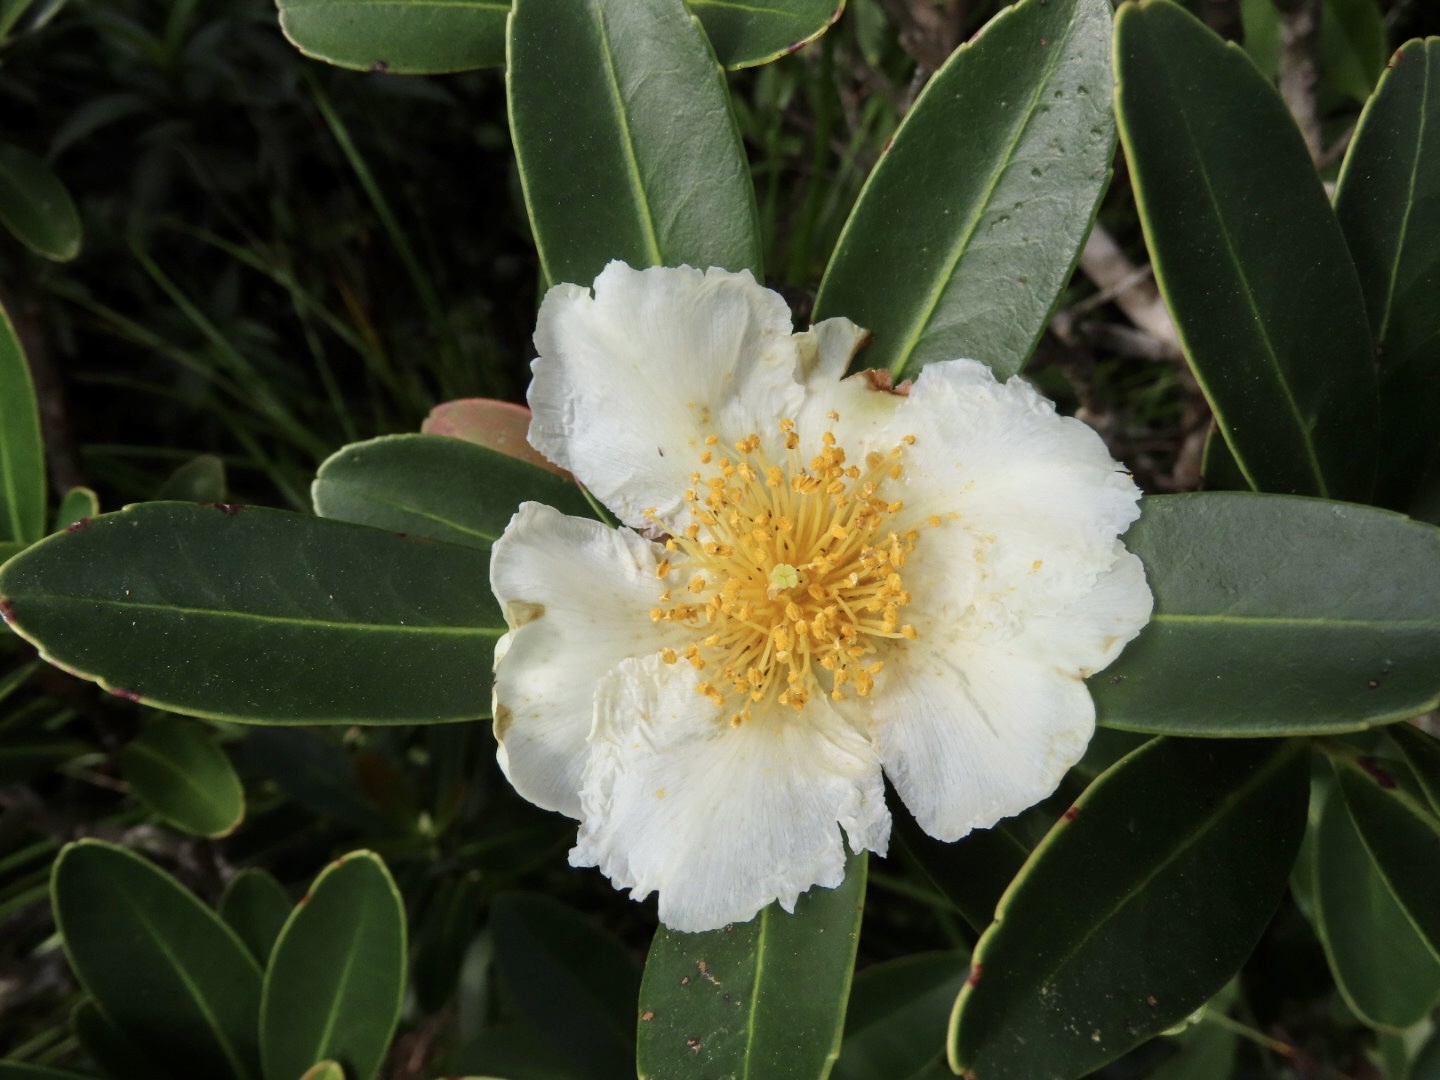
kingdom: Plantae
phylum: Tracheophyta
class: Magnoliopsida
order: Ericales
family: Theaceae
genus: Polyspora
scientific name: Polyspora axillaris
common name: Fried egg tree
